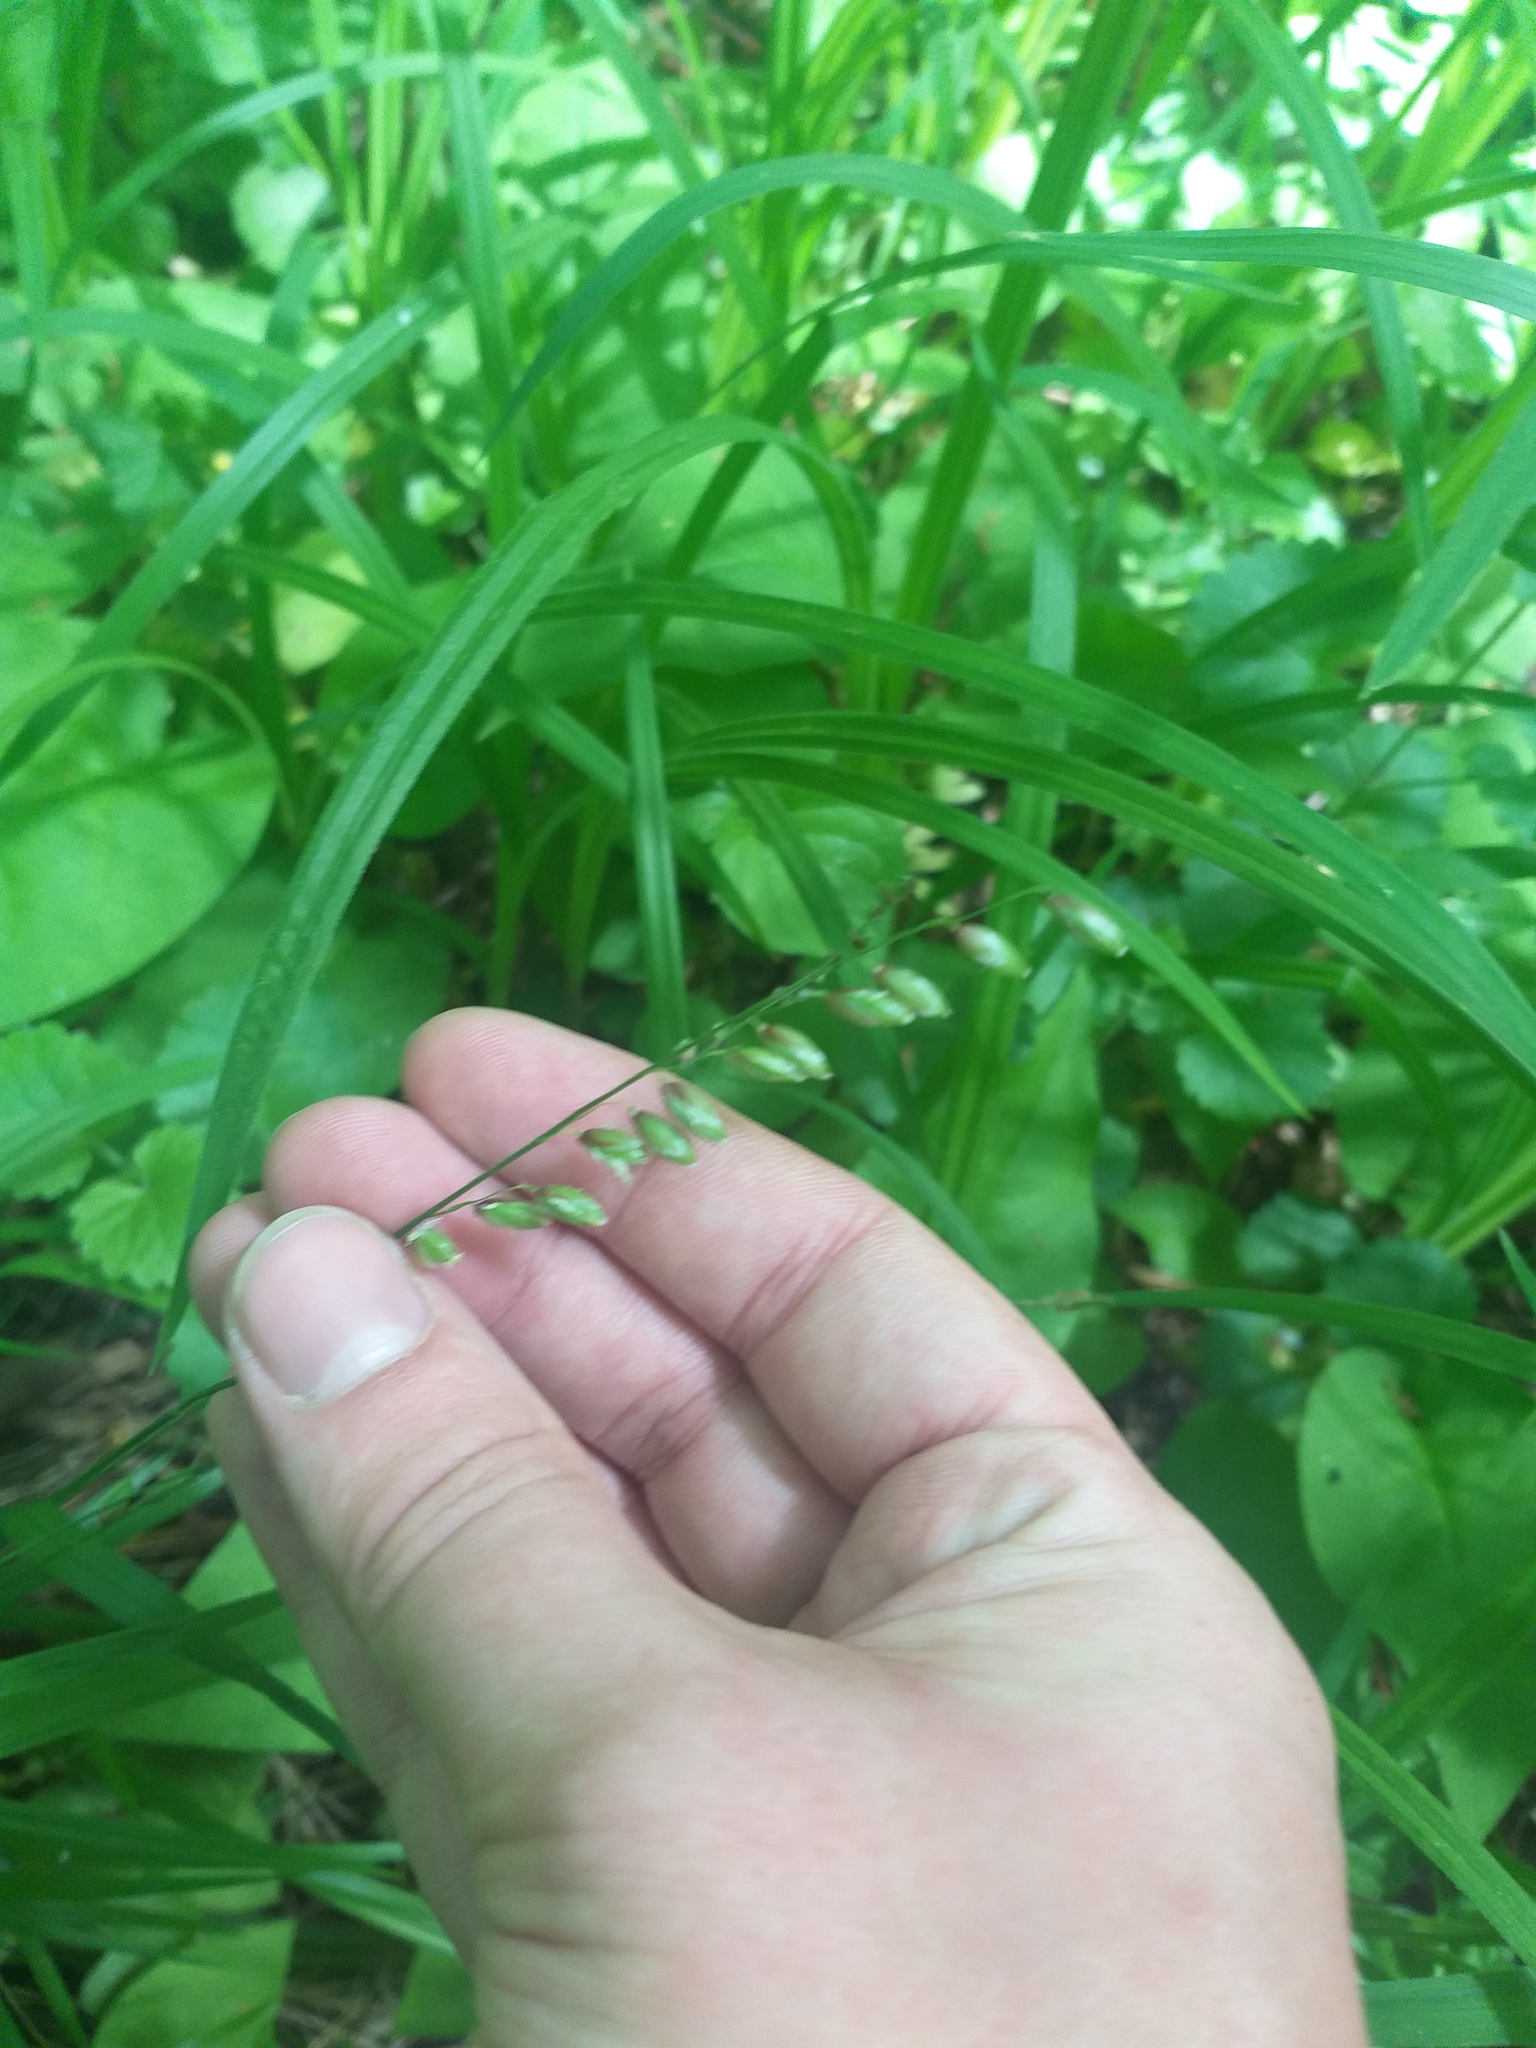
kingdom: Plantae
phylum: Tracheophyta
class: Liliopsida
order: Poales
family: Poaceae
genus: Melica
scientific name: Melica nutans
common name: Mountain melick
